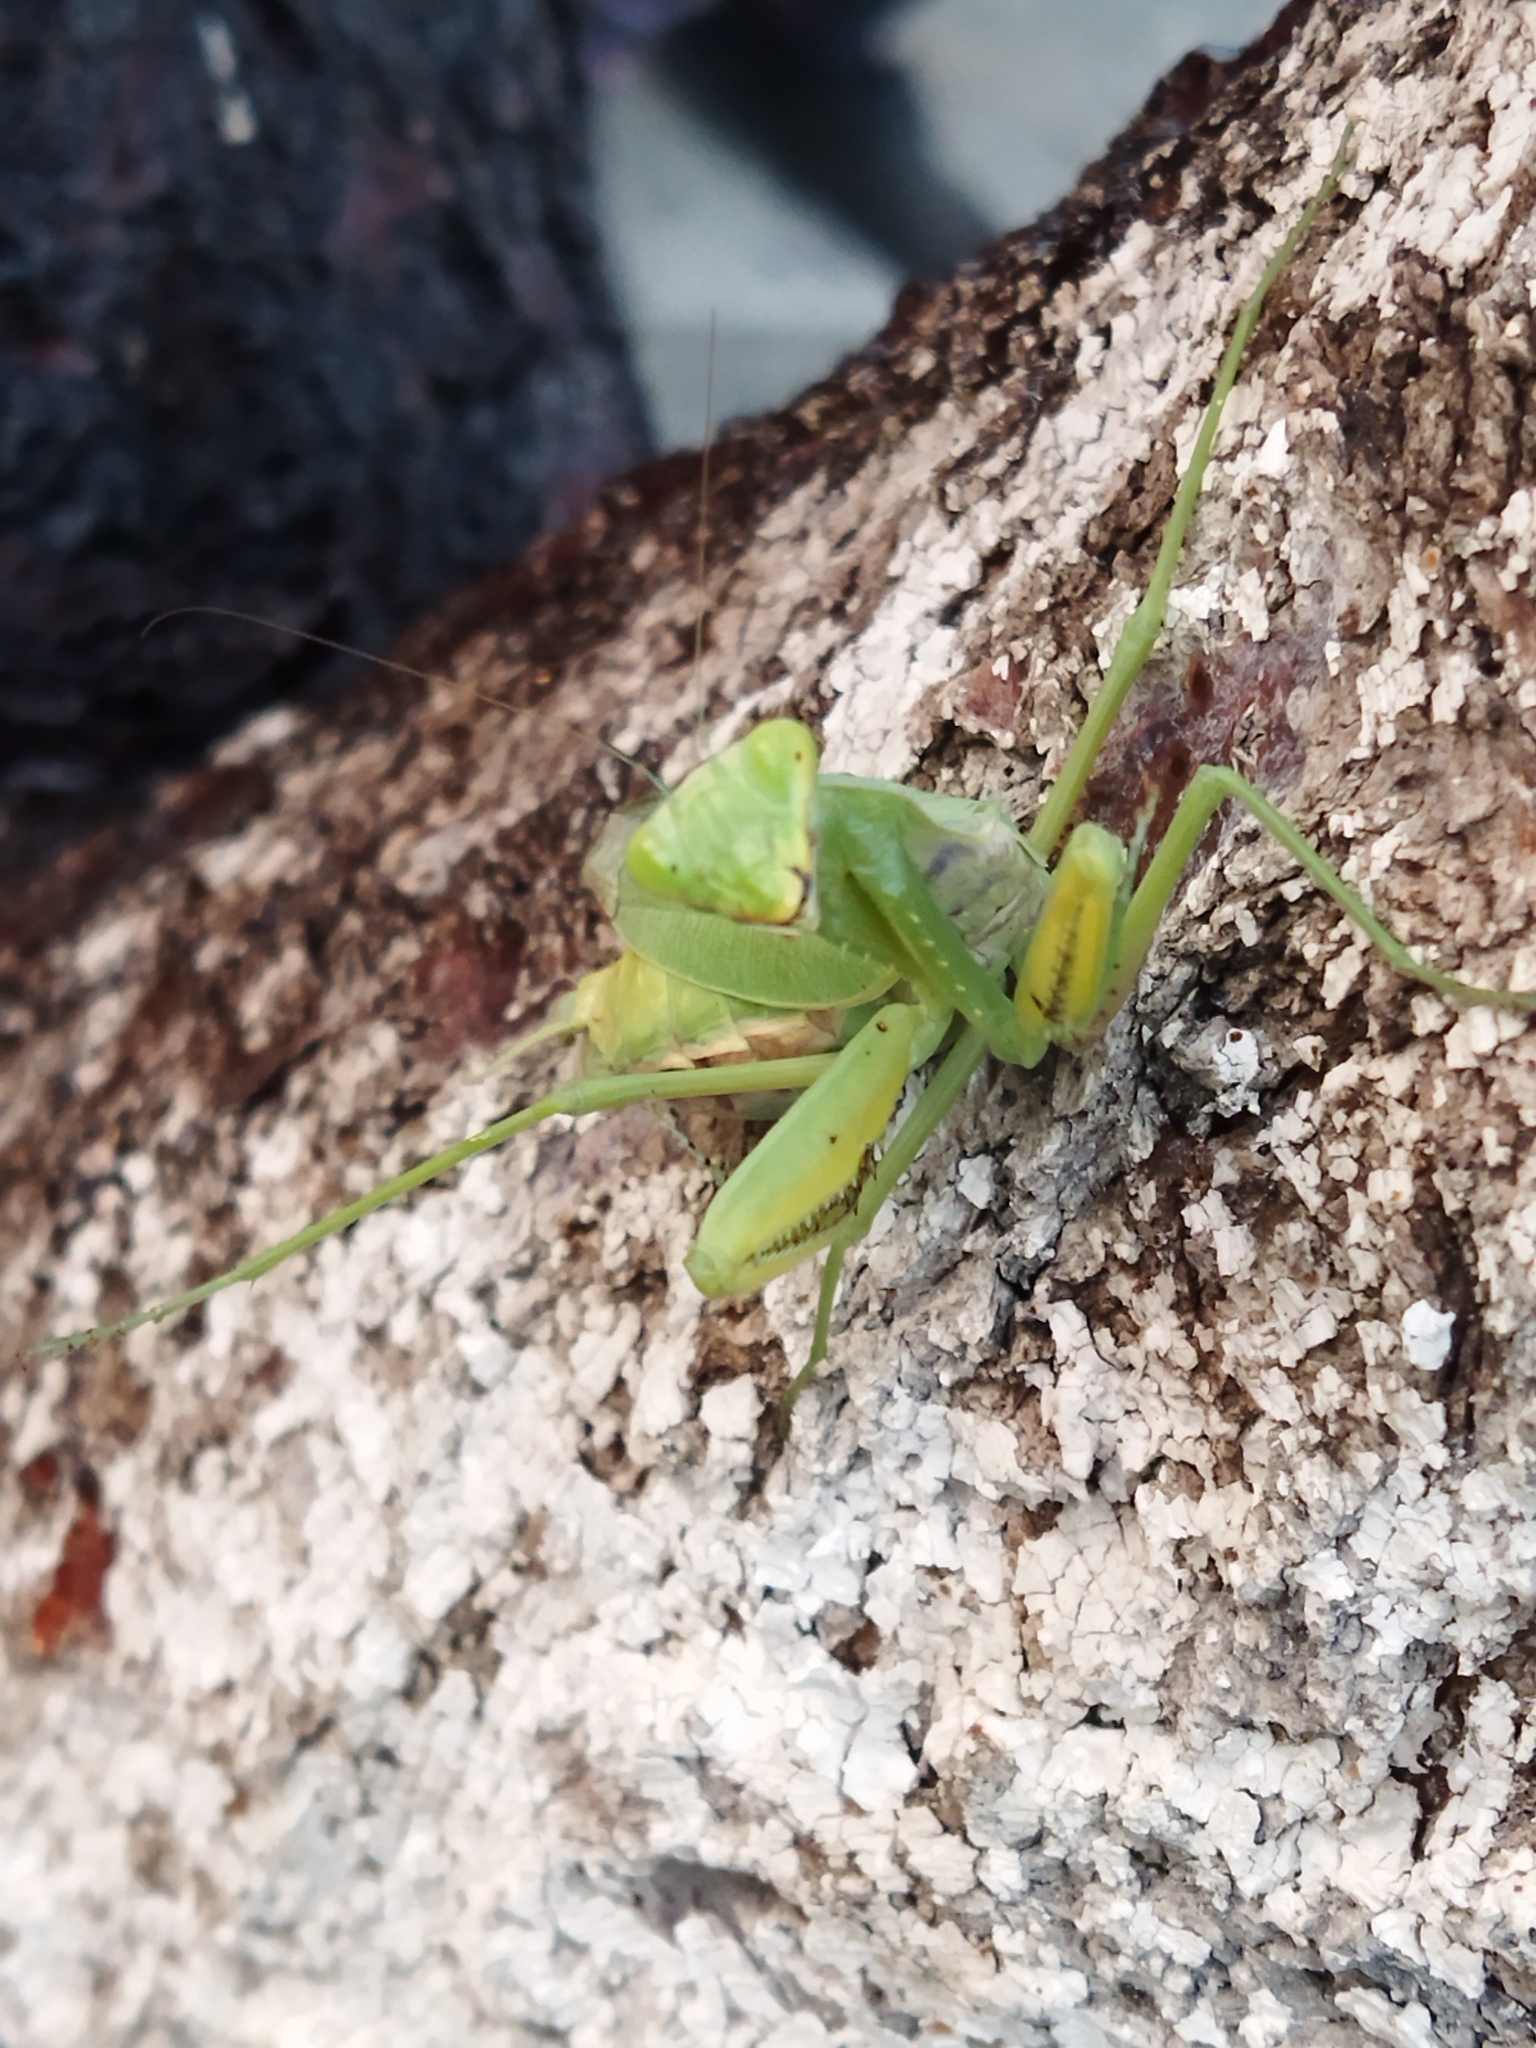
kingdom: Animalia
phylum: Arthropoda
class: Insecta
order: Mantodea
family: Mantidae
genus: Hierodula
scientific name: Hierodula transcaucasica
